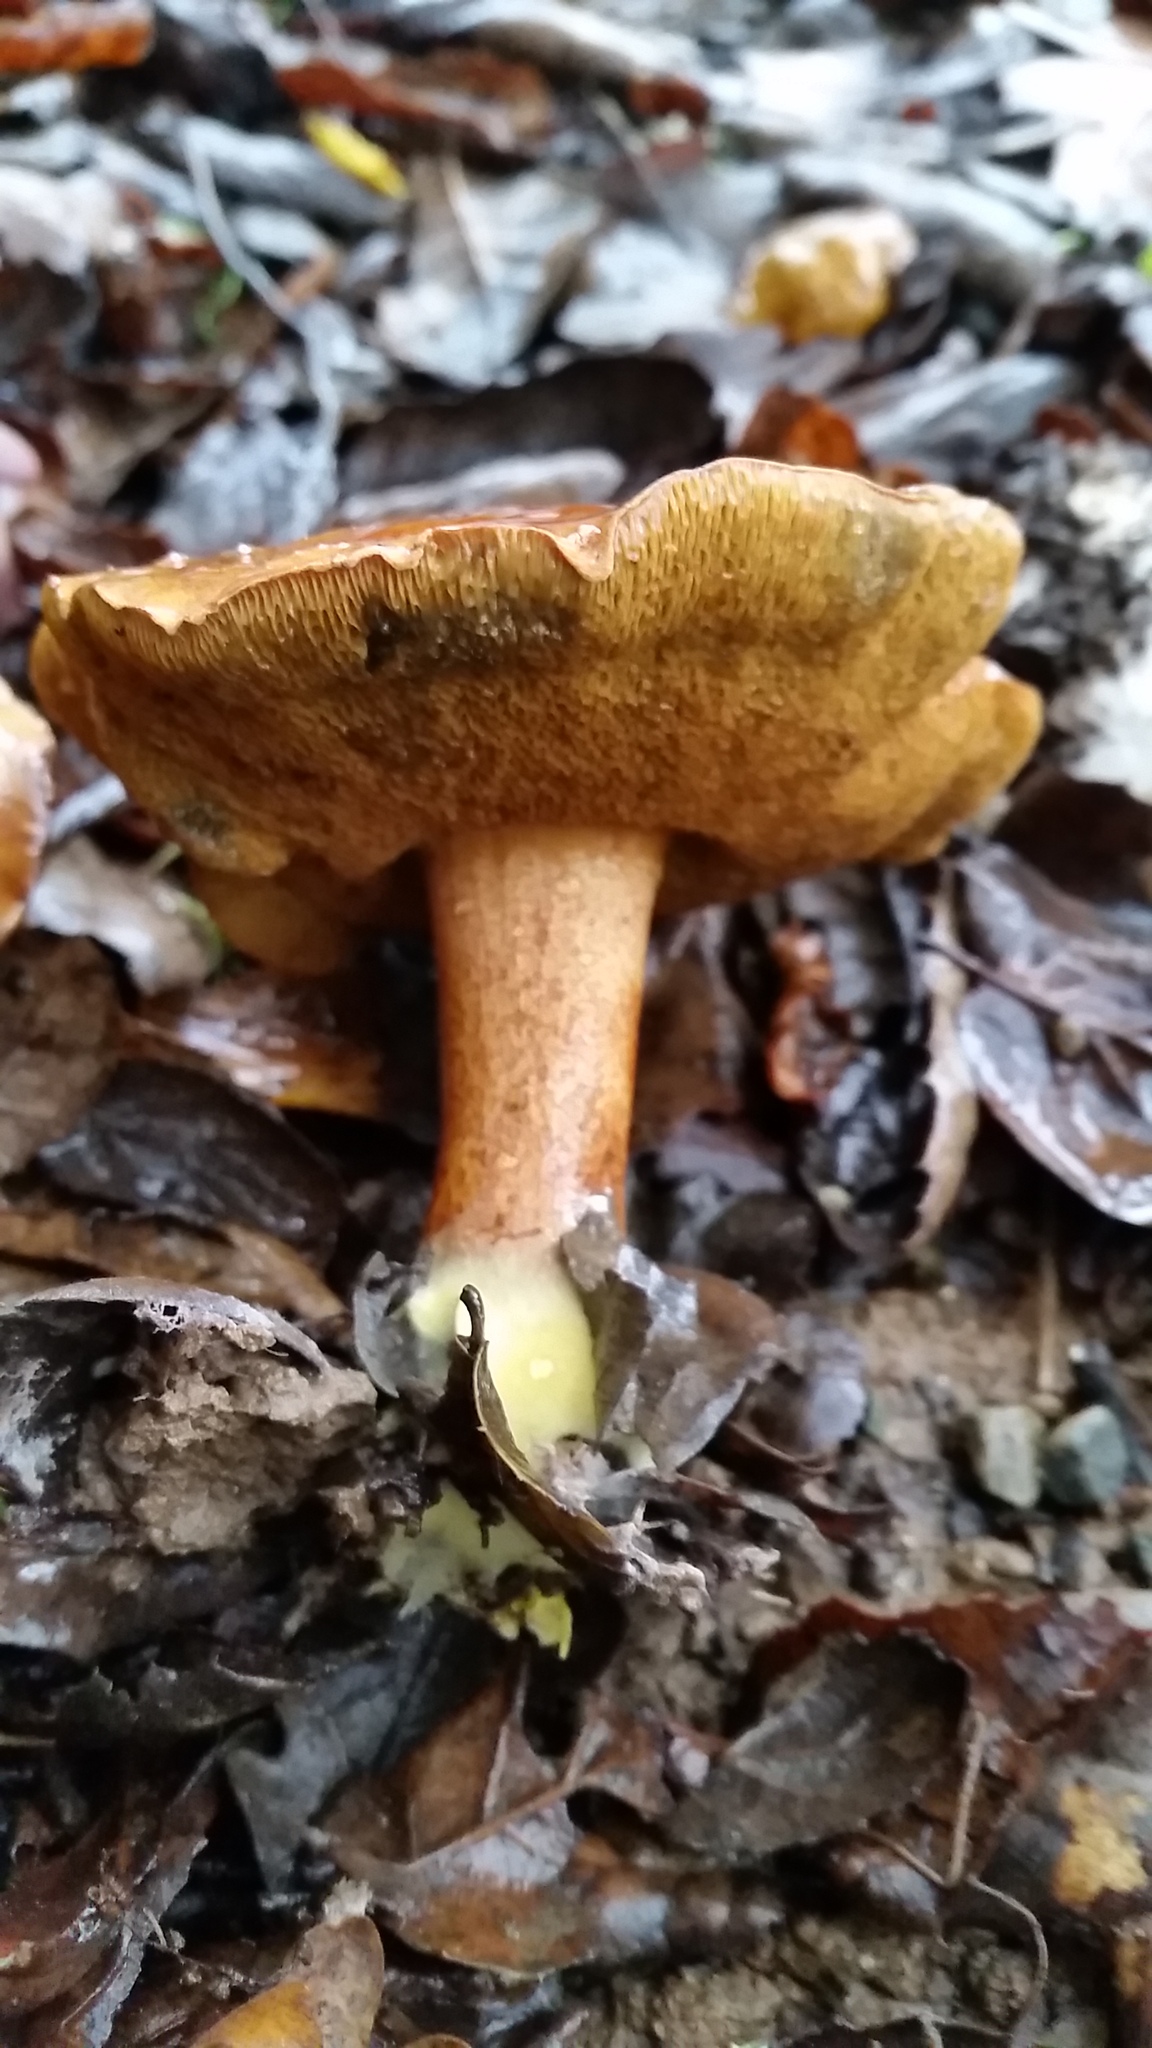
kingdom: Fungi
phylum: Basidiomycota
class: Agaricomycetes
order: Boletales
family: Boletaceae
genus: Chalciporus
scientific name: Chalciporus piperatus
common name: Peppery bolete
